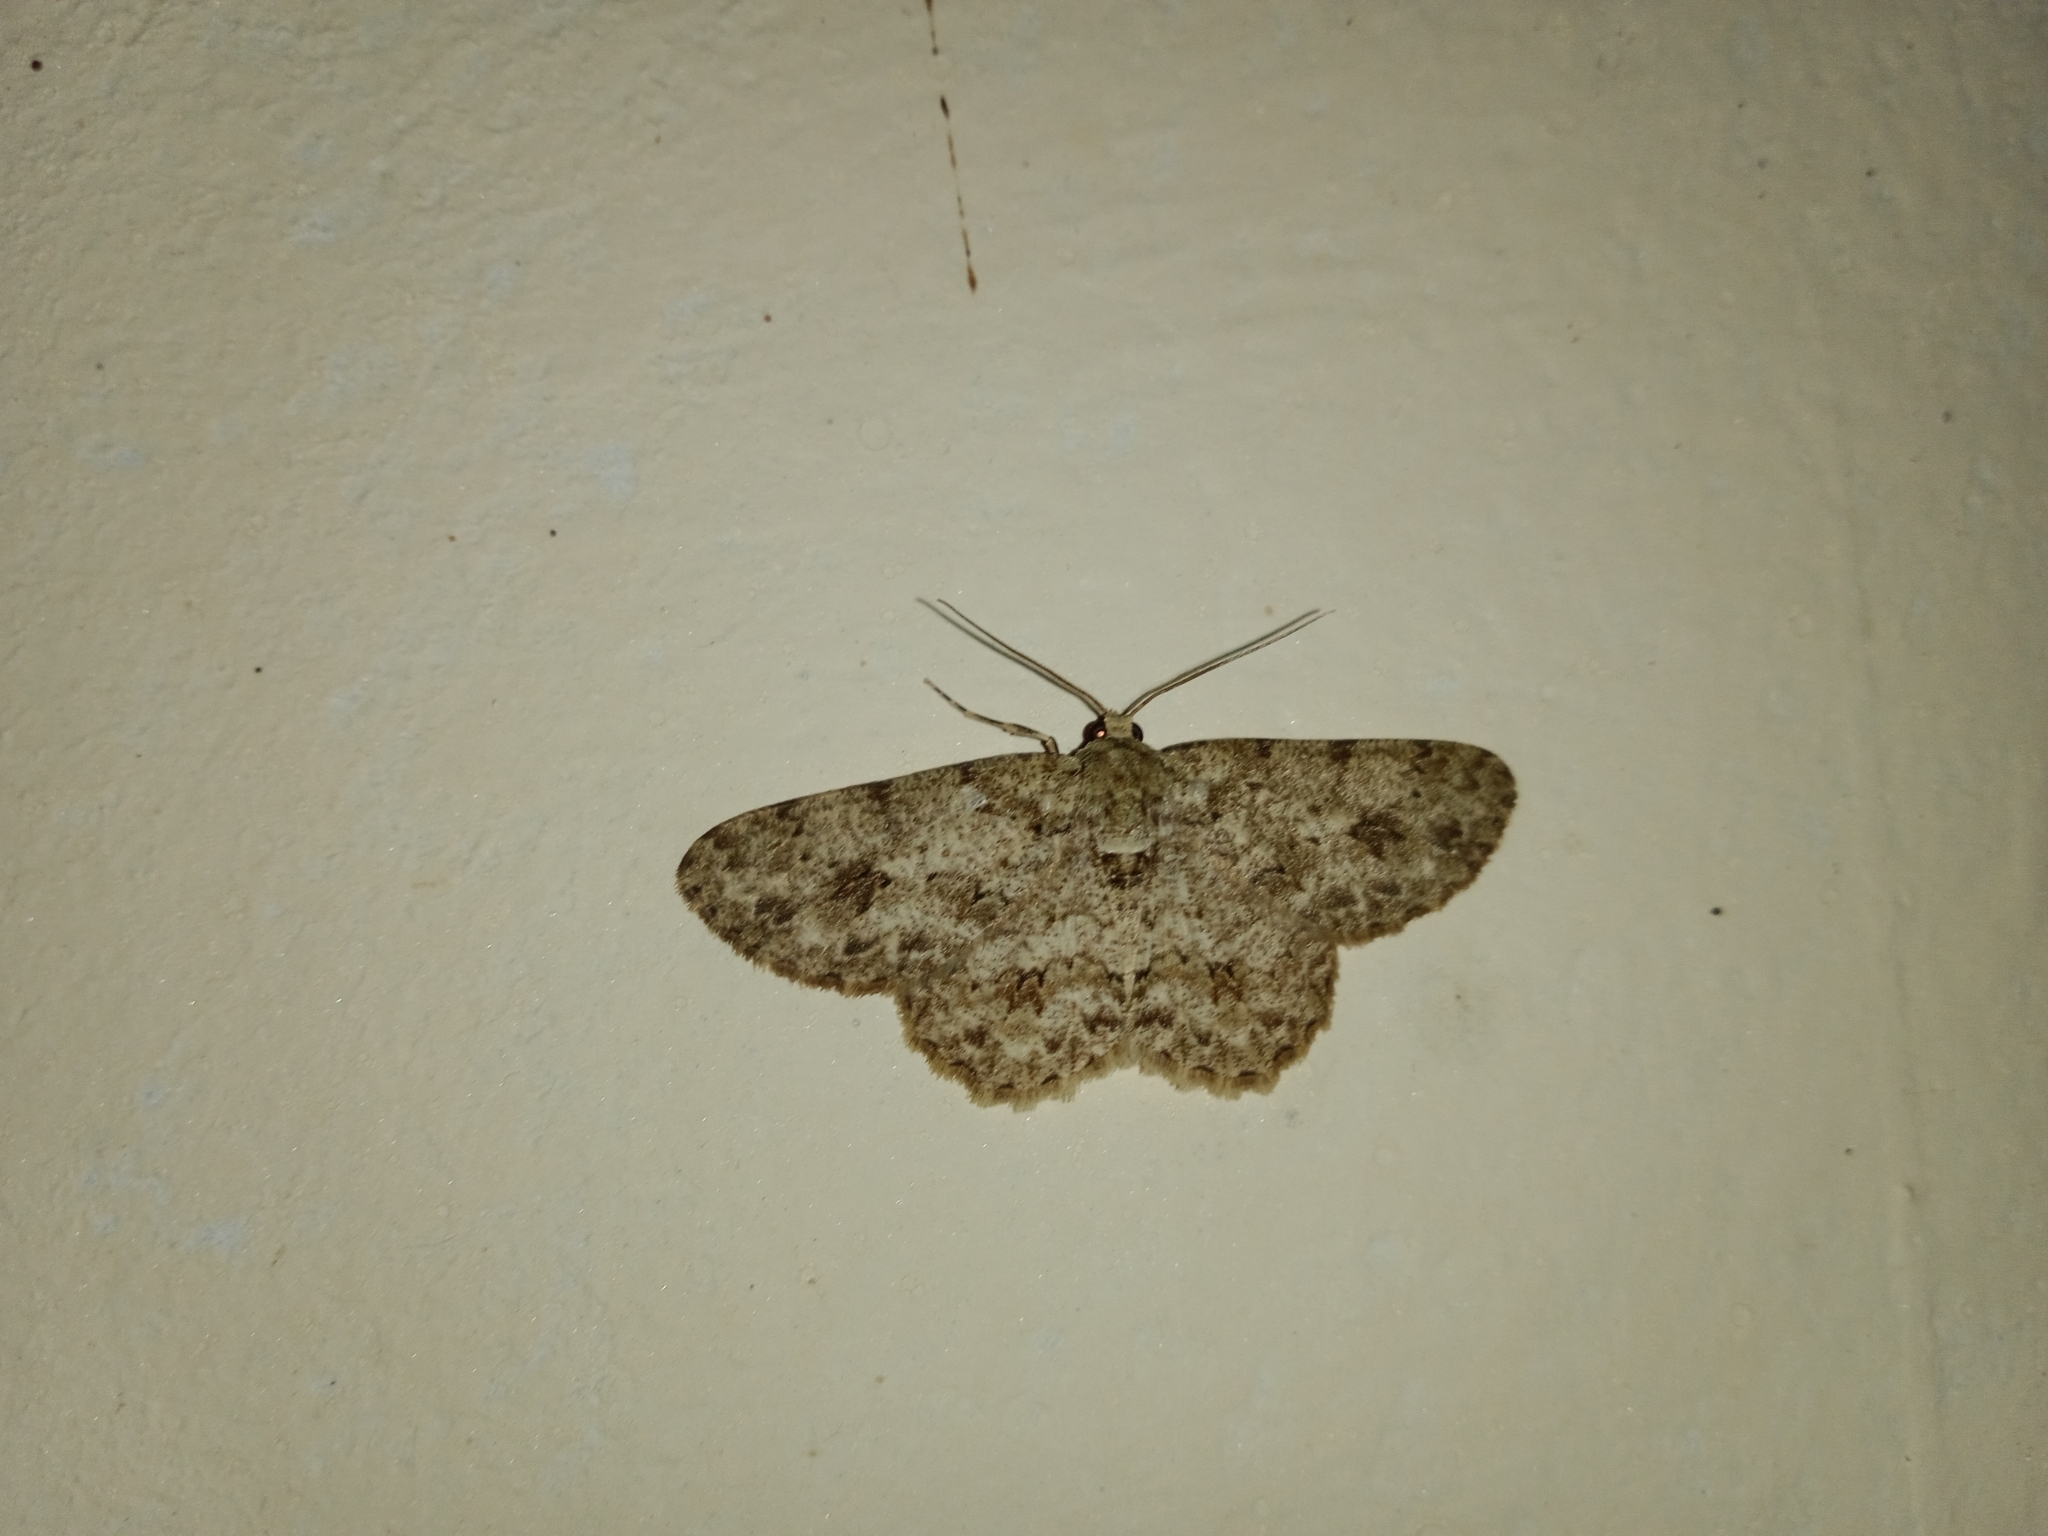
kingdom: Animalia
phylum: Arthropoda
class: Insecta
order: Lepidoptera
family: Geometridae
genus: Ectropis
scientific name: Ectropis bhurmitra
